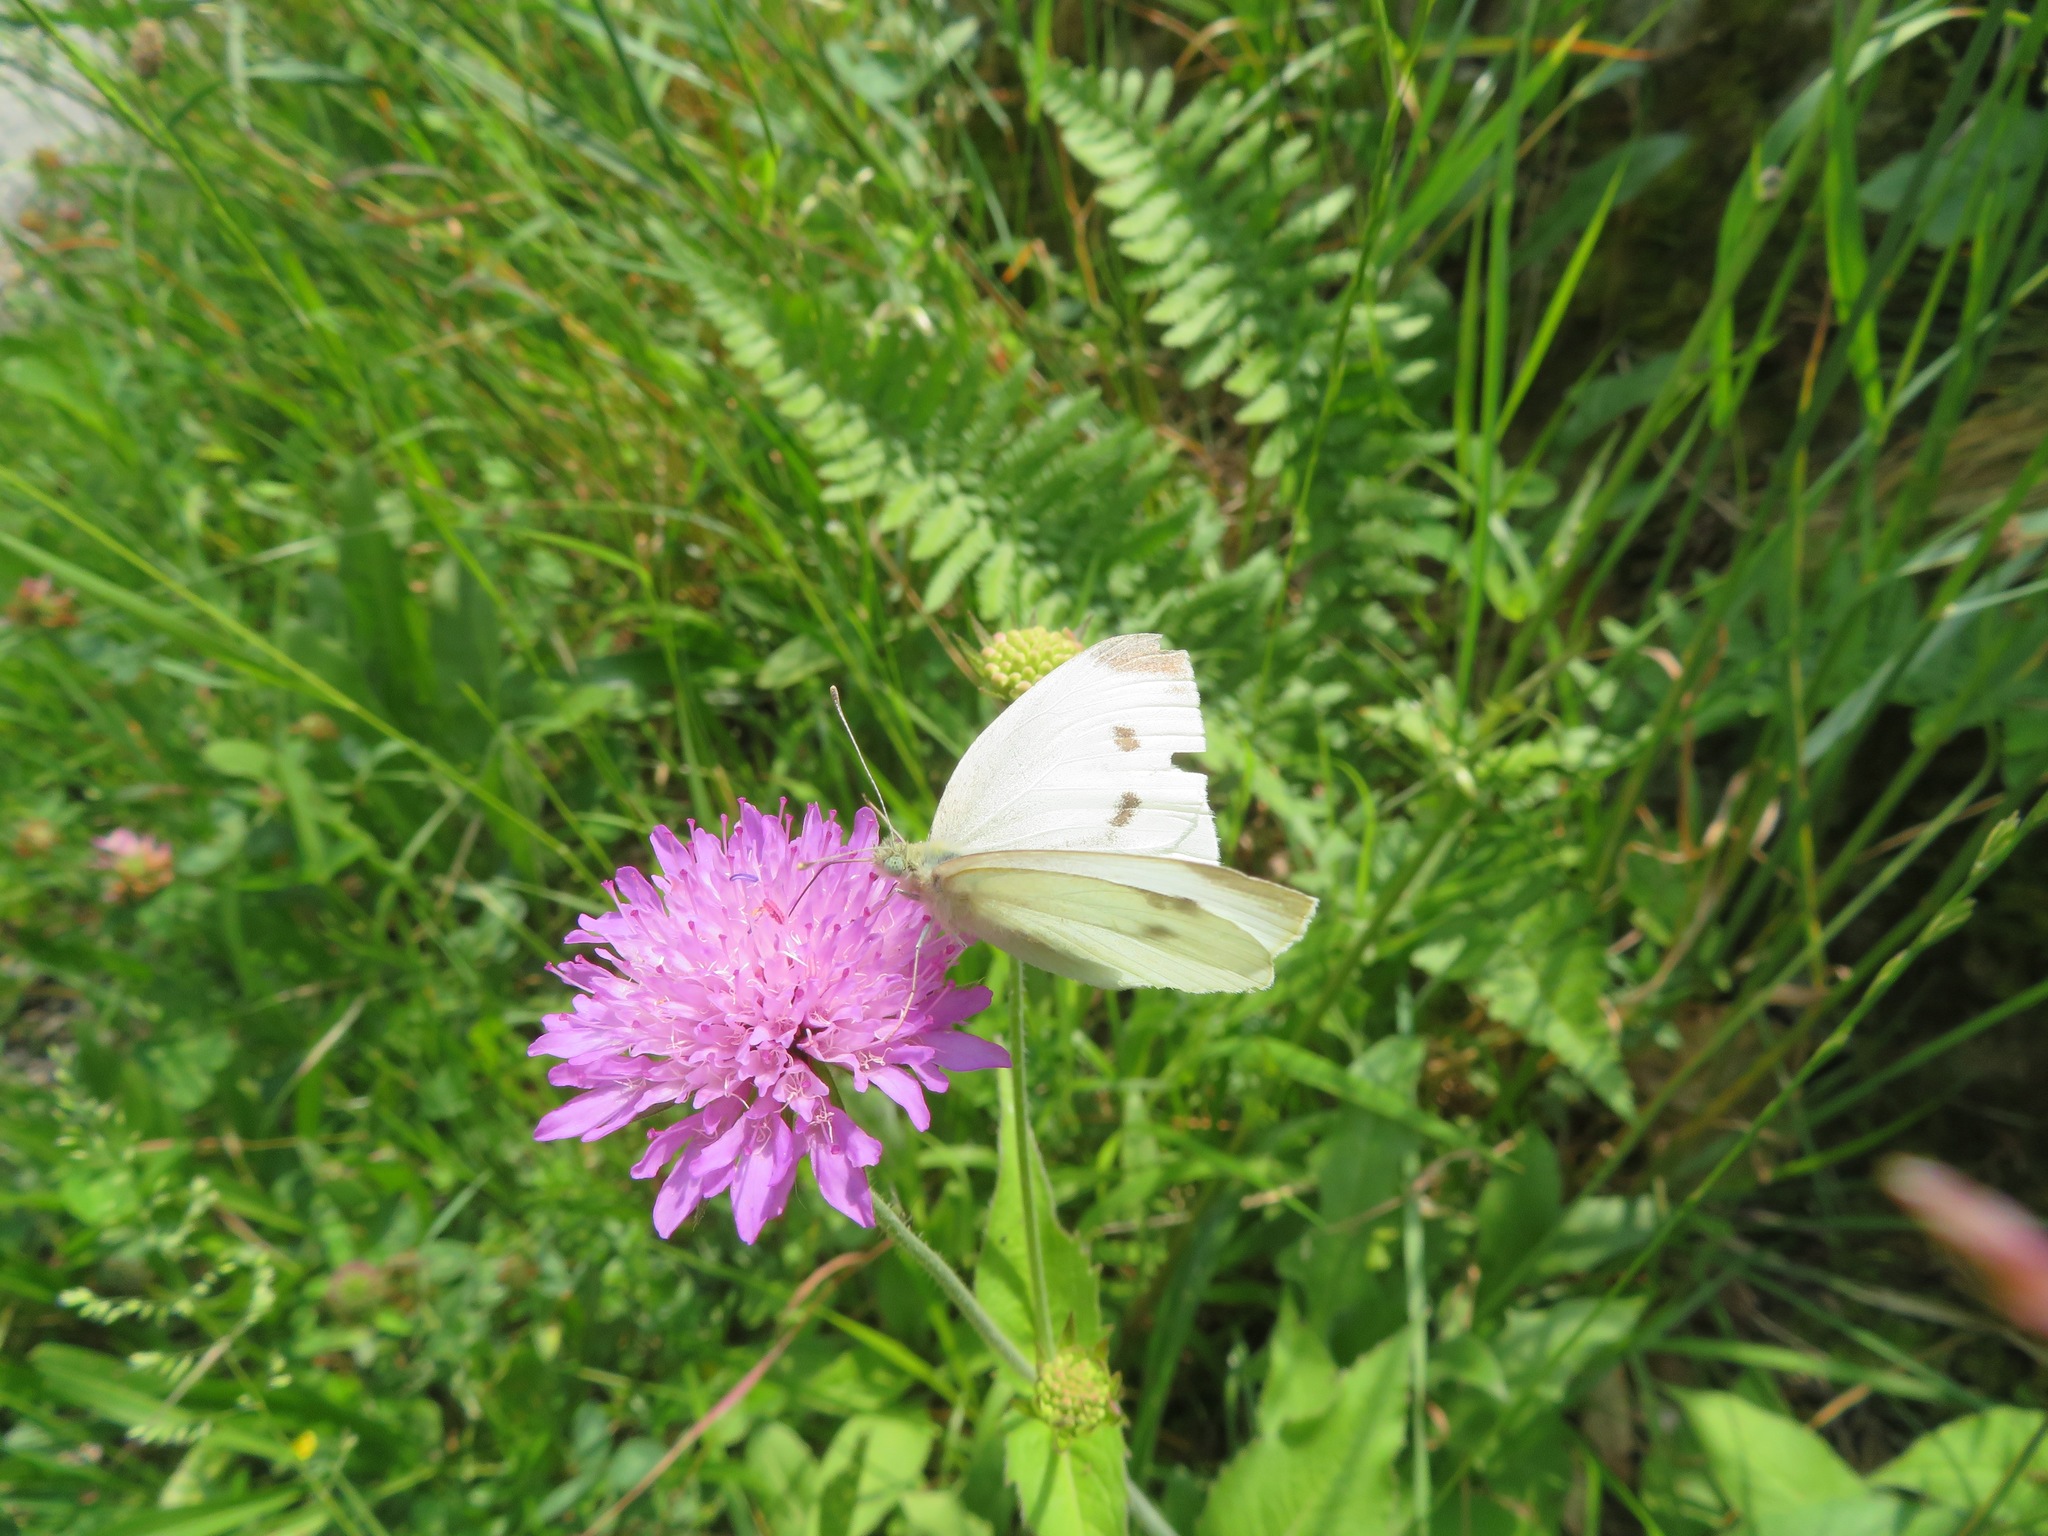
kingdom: Animalia
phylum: Arthropoda
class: Insecta
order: Lepidoptera
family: Pieridae
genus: Pieris
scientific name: Pieris rapae
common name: Small white
